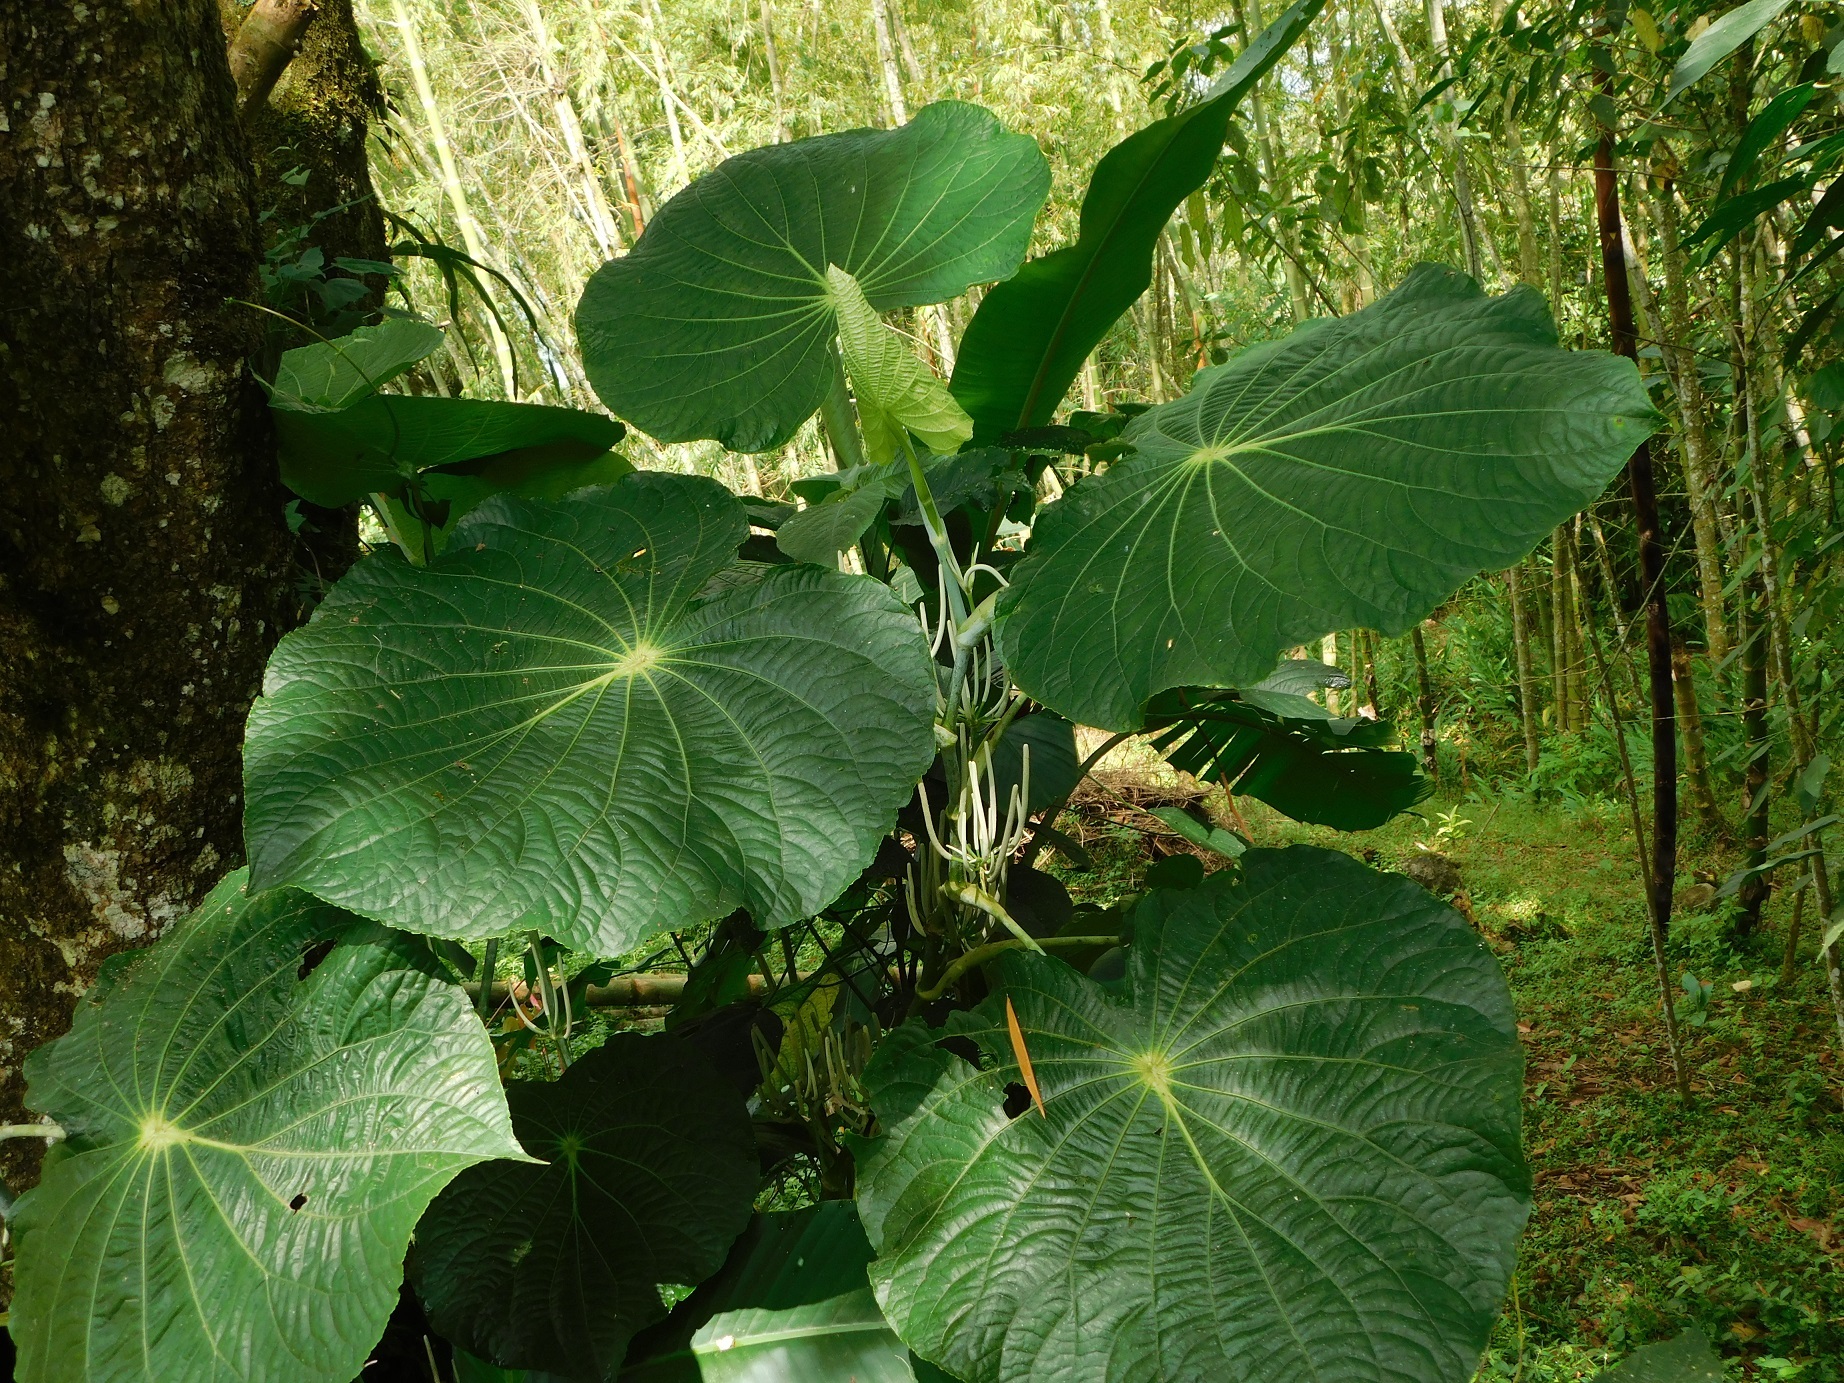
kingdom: Plantae
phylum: Tracheophyta
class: Magnoliopsida
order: Piperales
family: Piperaceae
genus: Piper
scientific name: Piper peltatum
